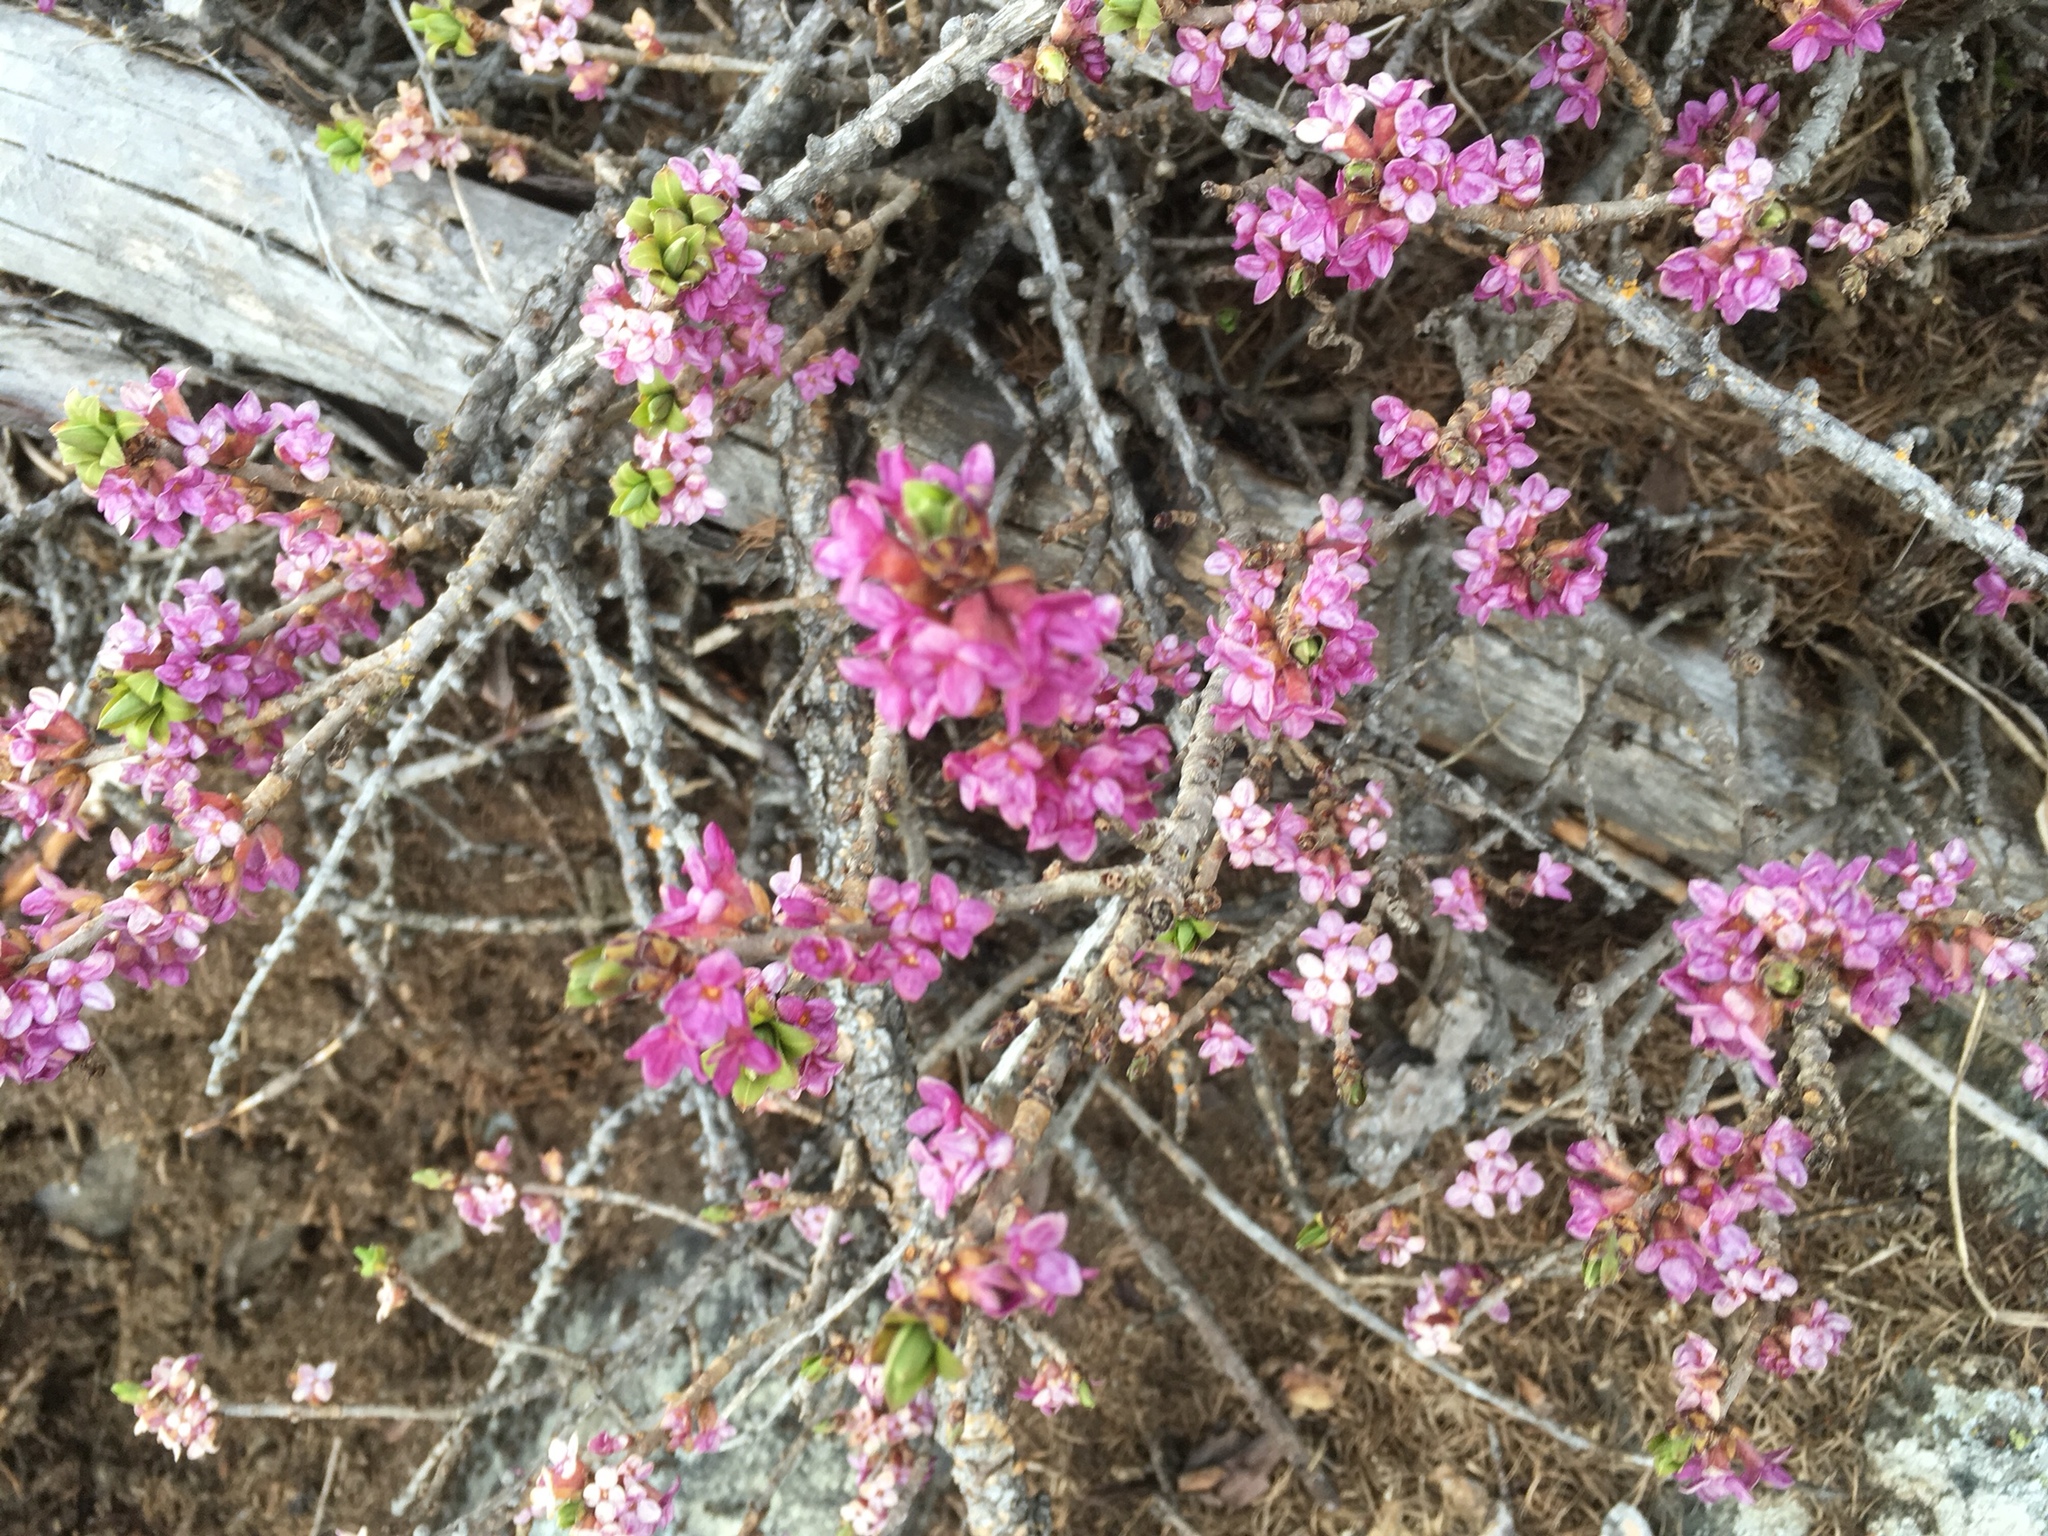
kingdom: Plantae
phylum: Tracheophyta
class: Magnoliopsida
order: Malvales
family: Thymelaeaceae
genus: Daphne
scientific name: Daphne mezereum
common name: Mezereon
